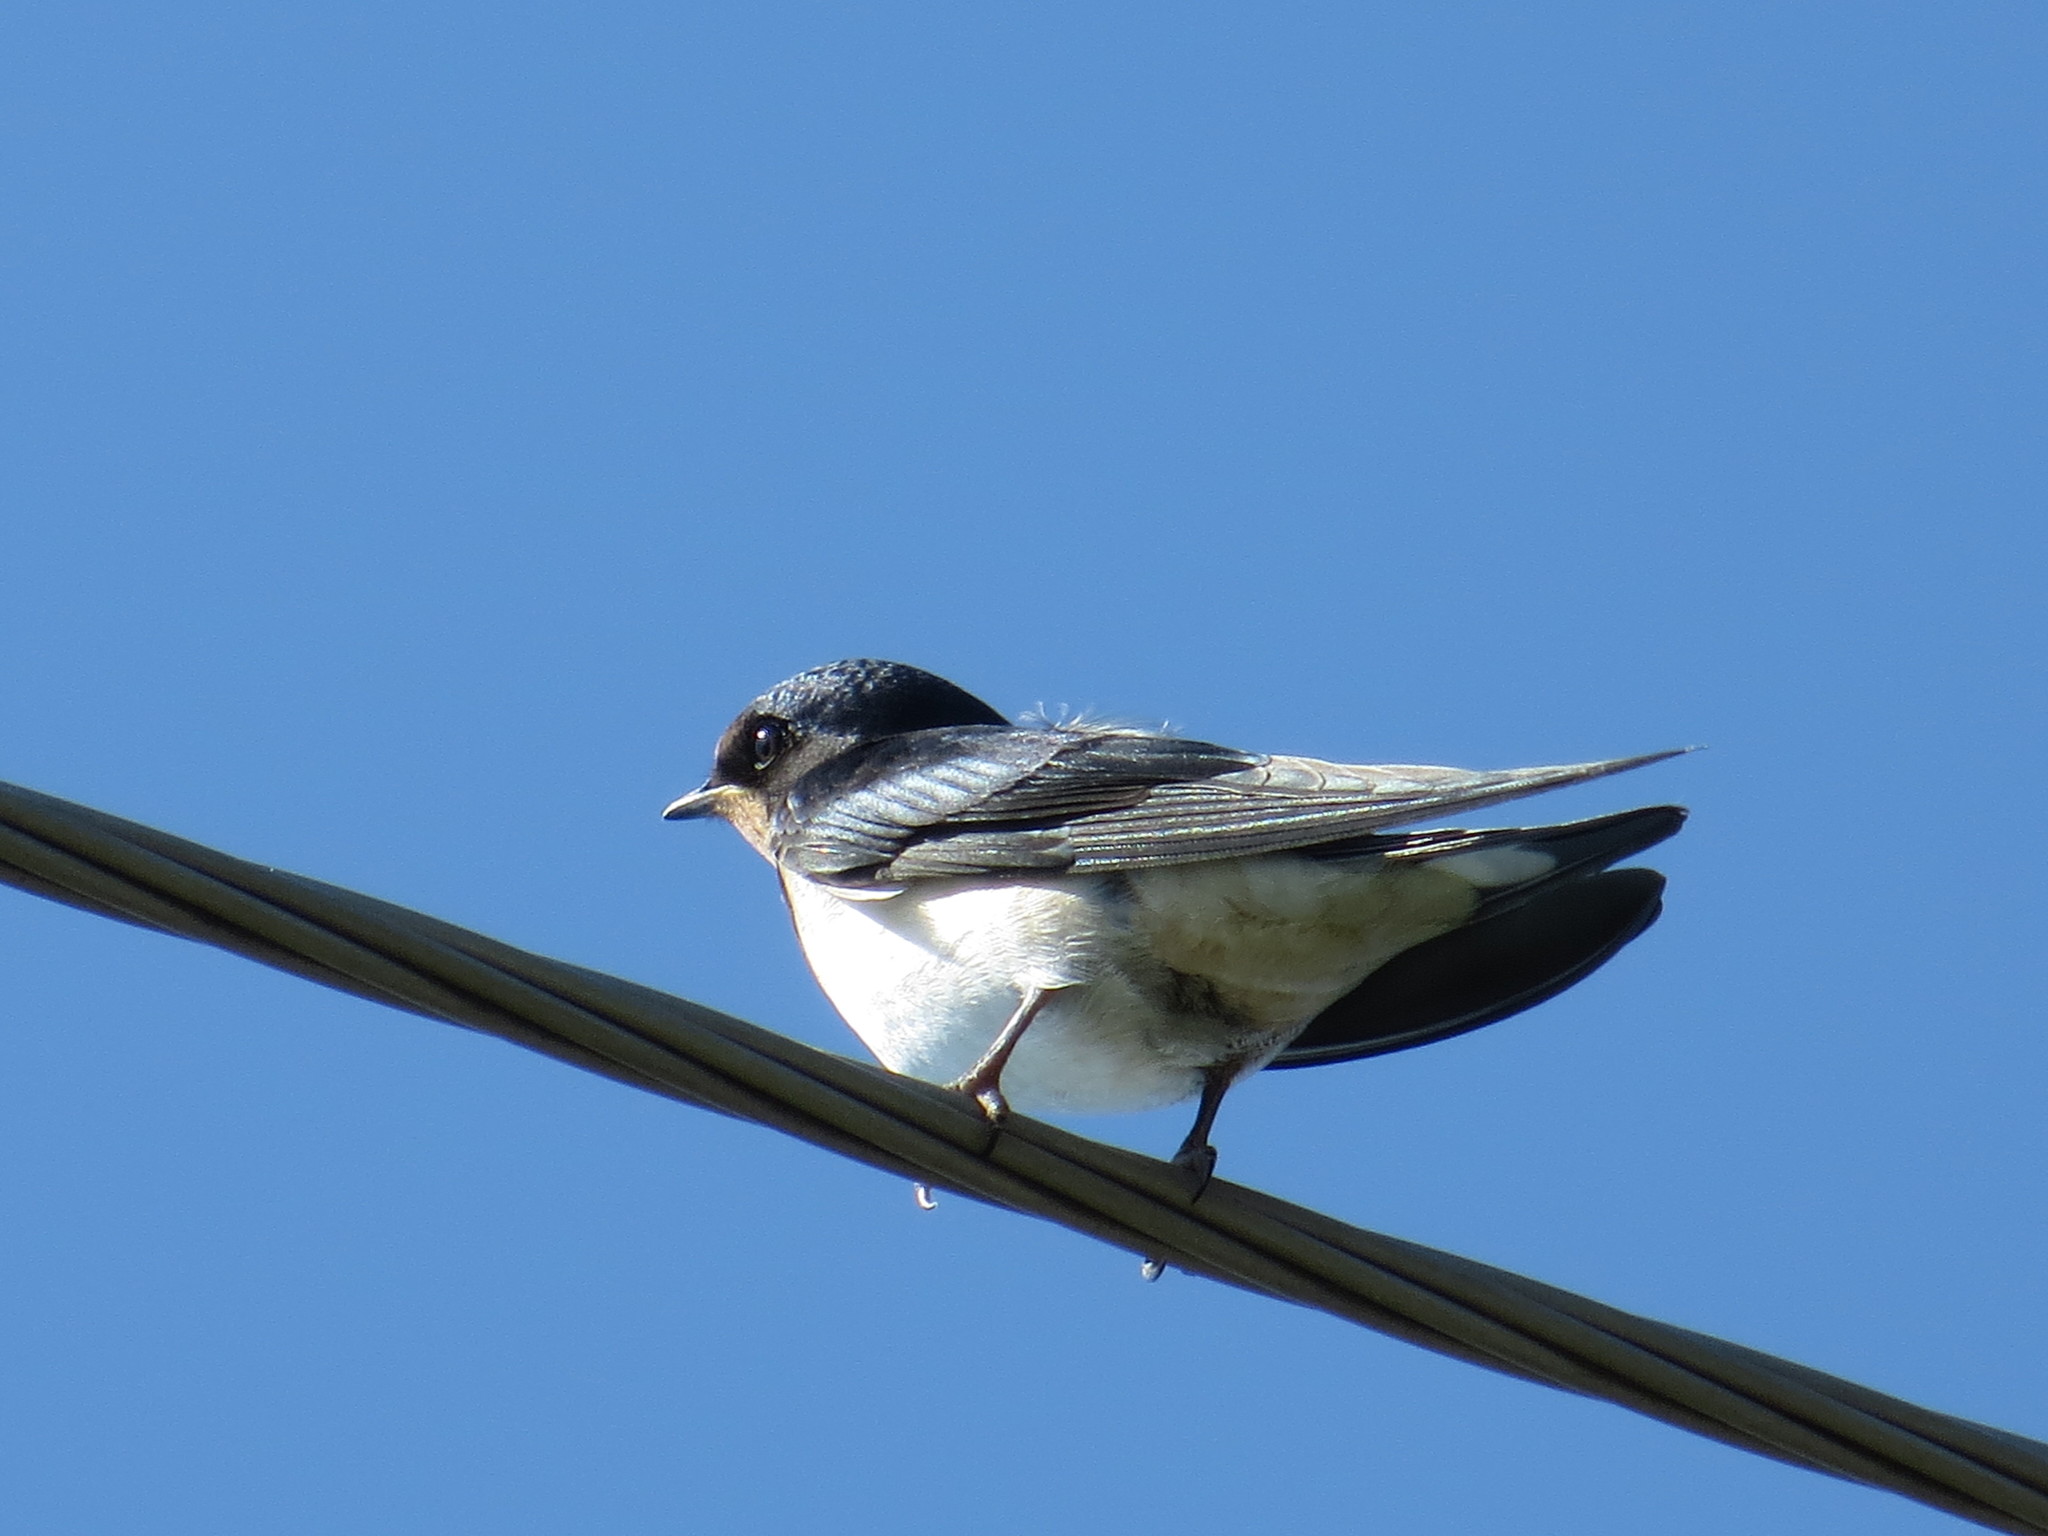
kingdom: Animalia
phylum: Chordata
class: Aves
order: Passeriformes
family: Hirundinidae
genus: Hirundo
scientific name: Hirundo rustica
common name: Barn swallow
